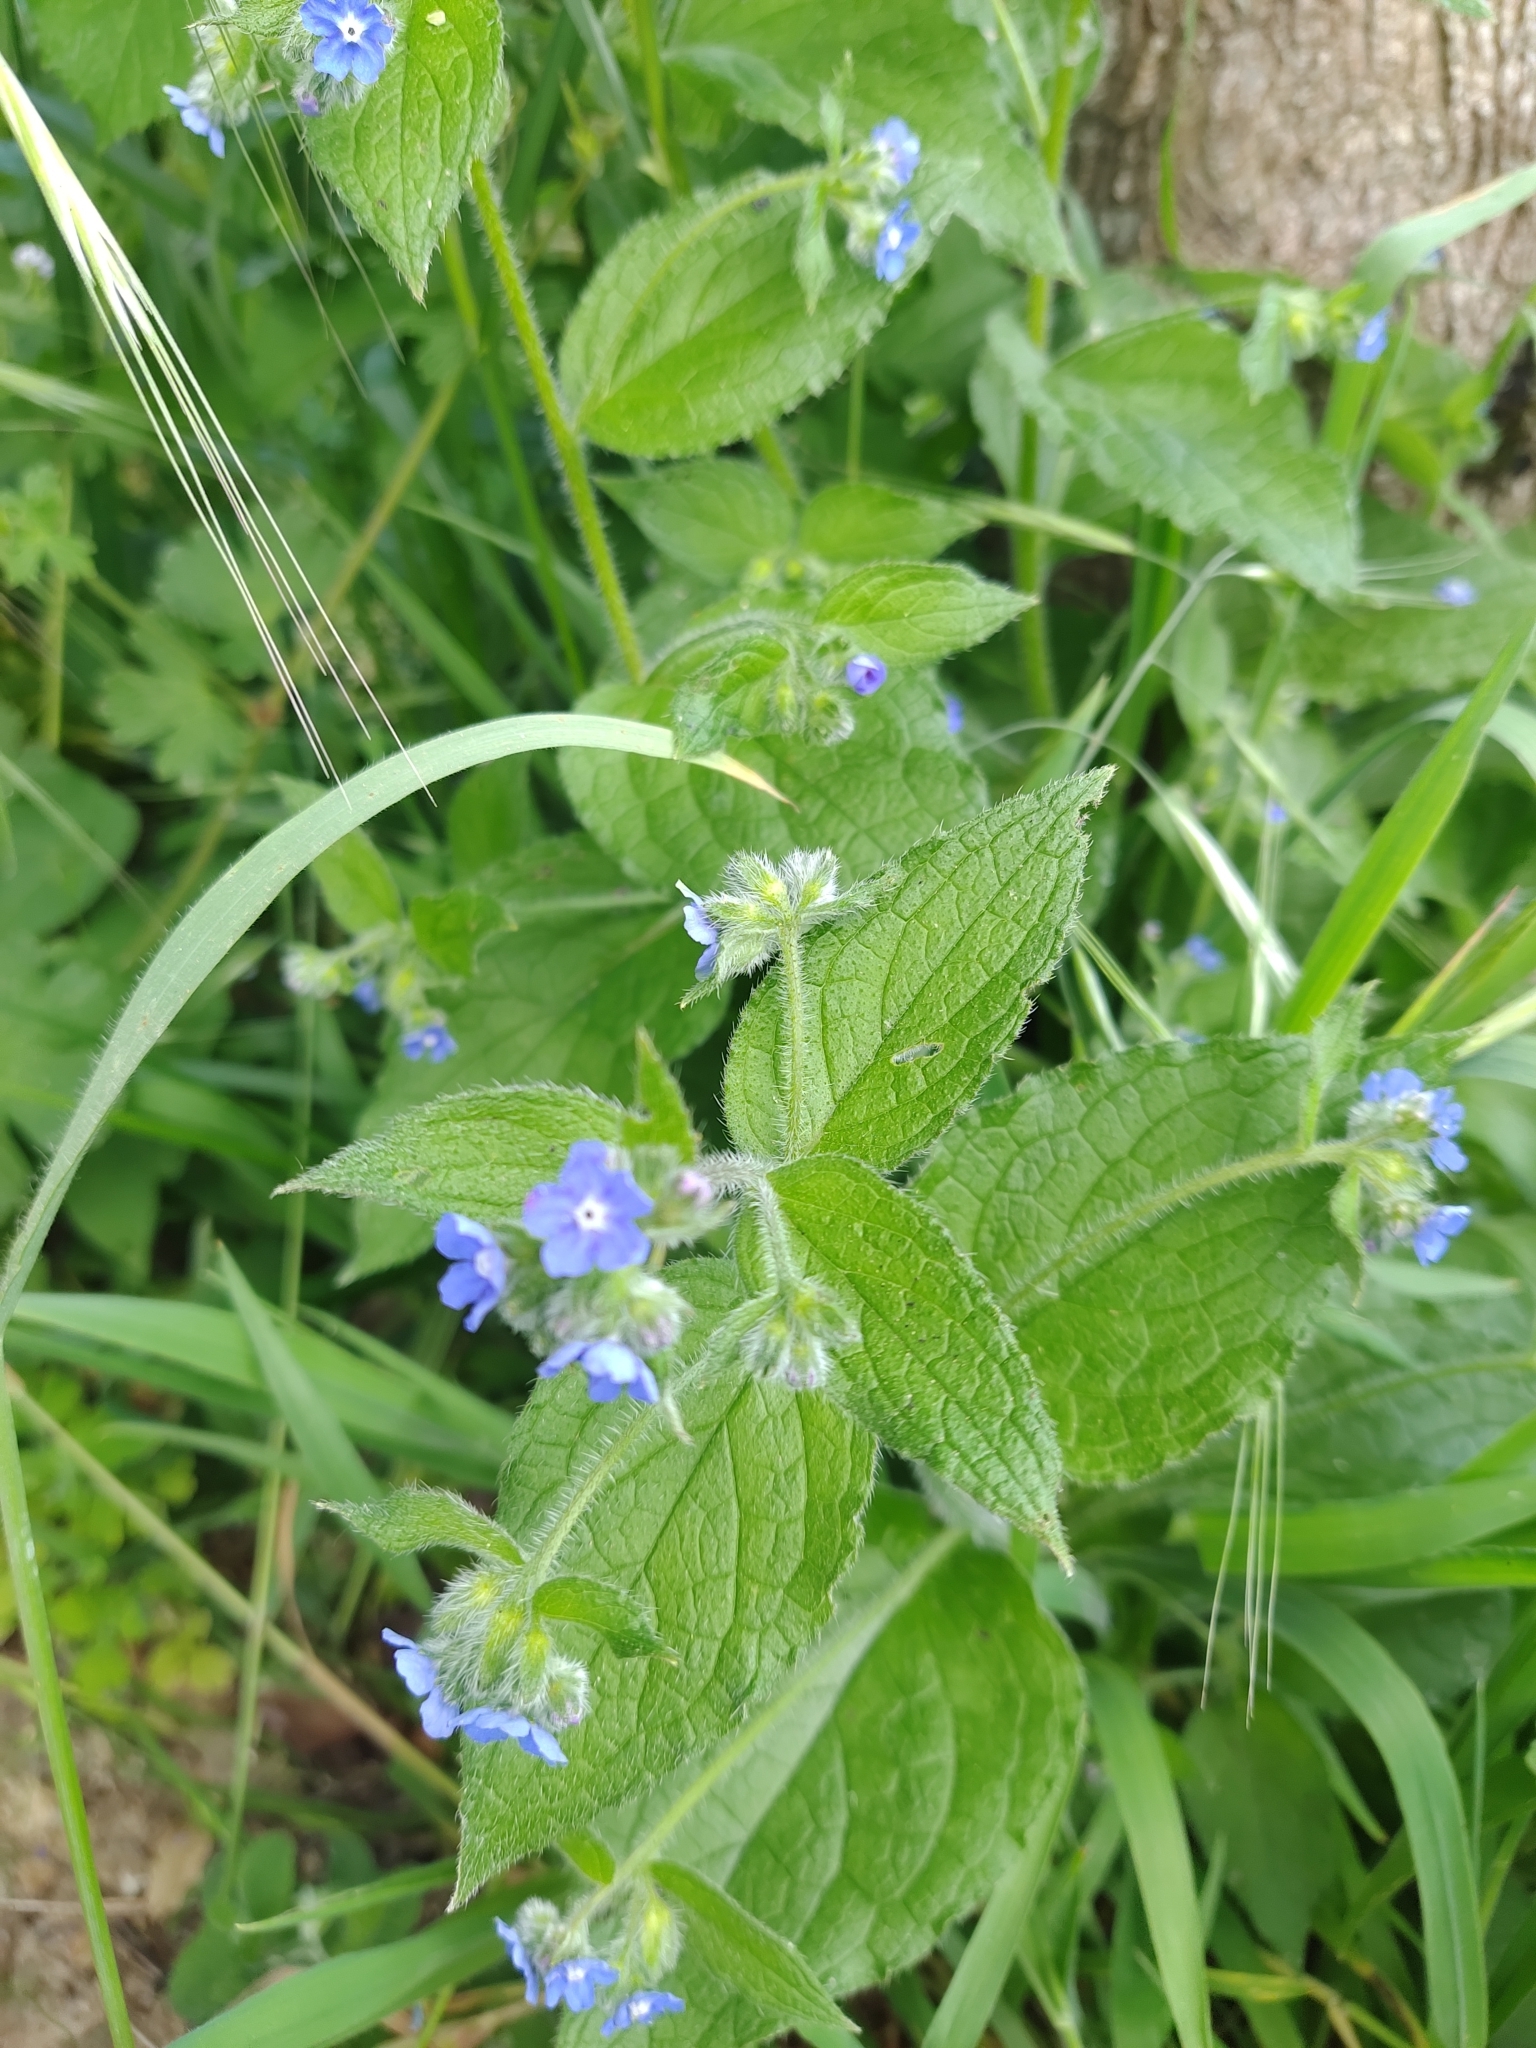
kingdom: Plantae
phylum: Tracheophyta
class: Magnoliopsida
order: Boraginales
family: Boraginaceae
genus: Pentaglottis
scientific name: Pentaglottis sempervirens
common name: Green alkanet
